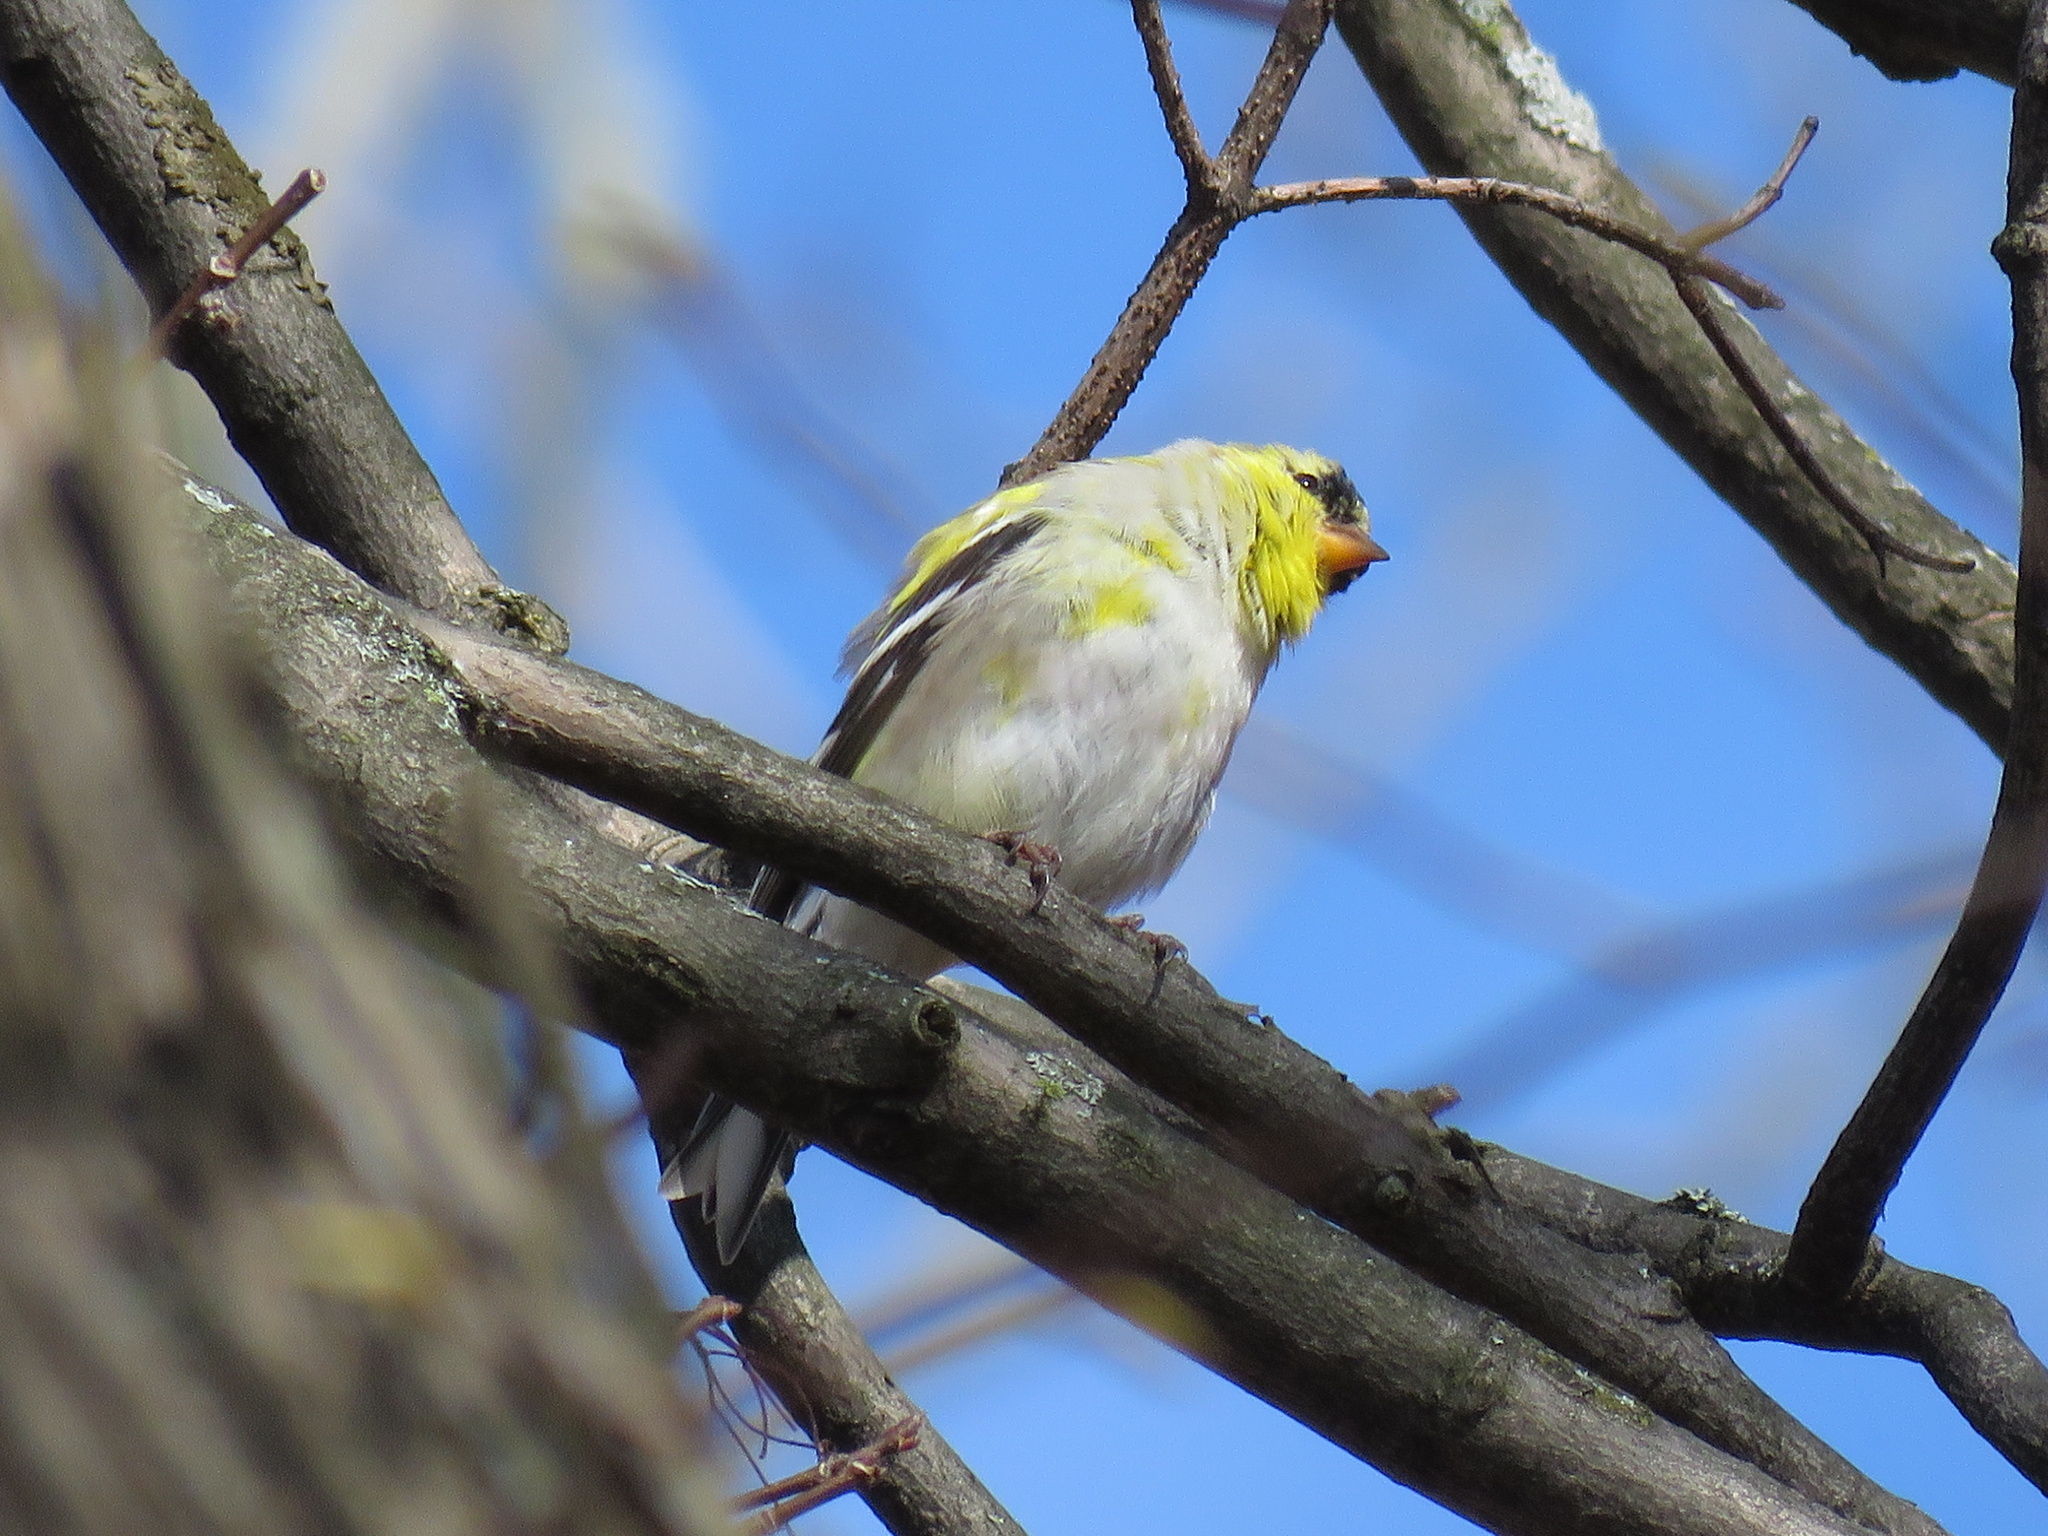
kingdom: Animalia
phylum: Chordata
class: Aves
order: Passeriformes
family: Fringillidae
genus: Spinus
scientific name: Spinus tristis
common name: American goldfinch
